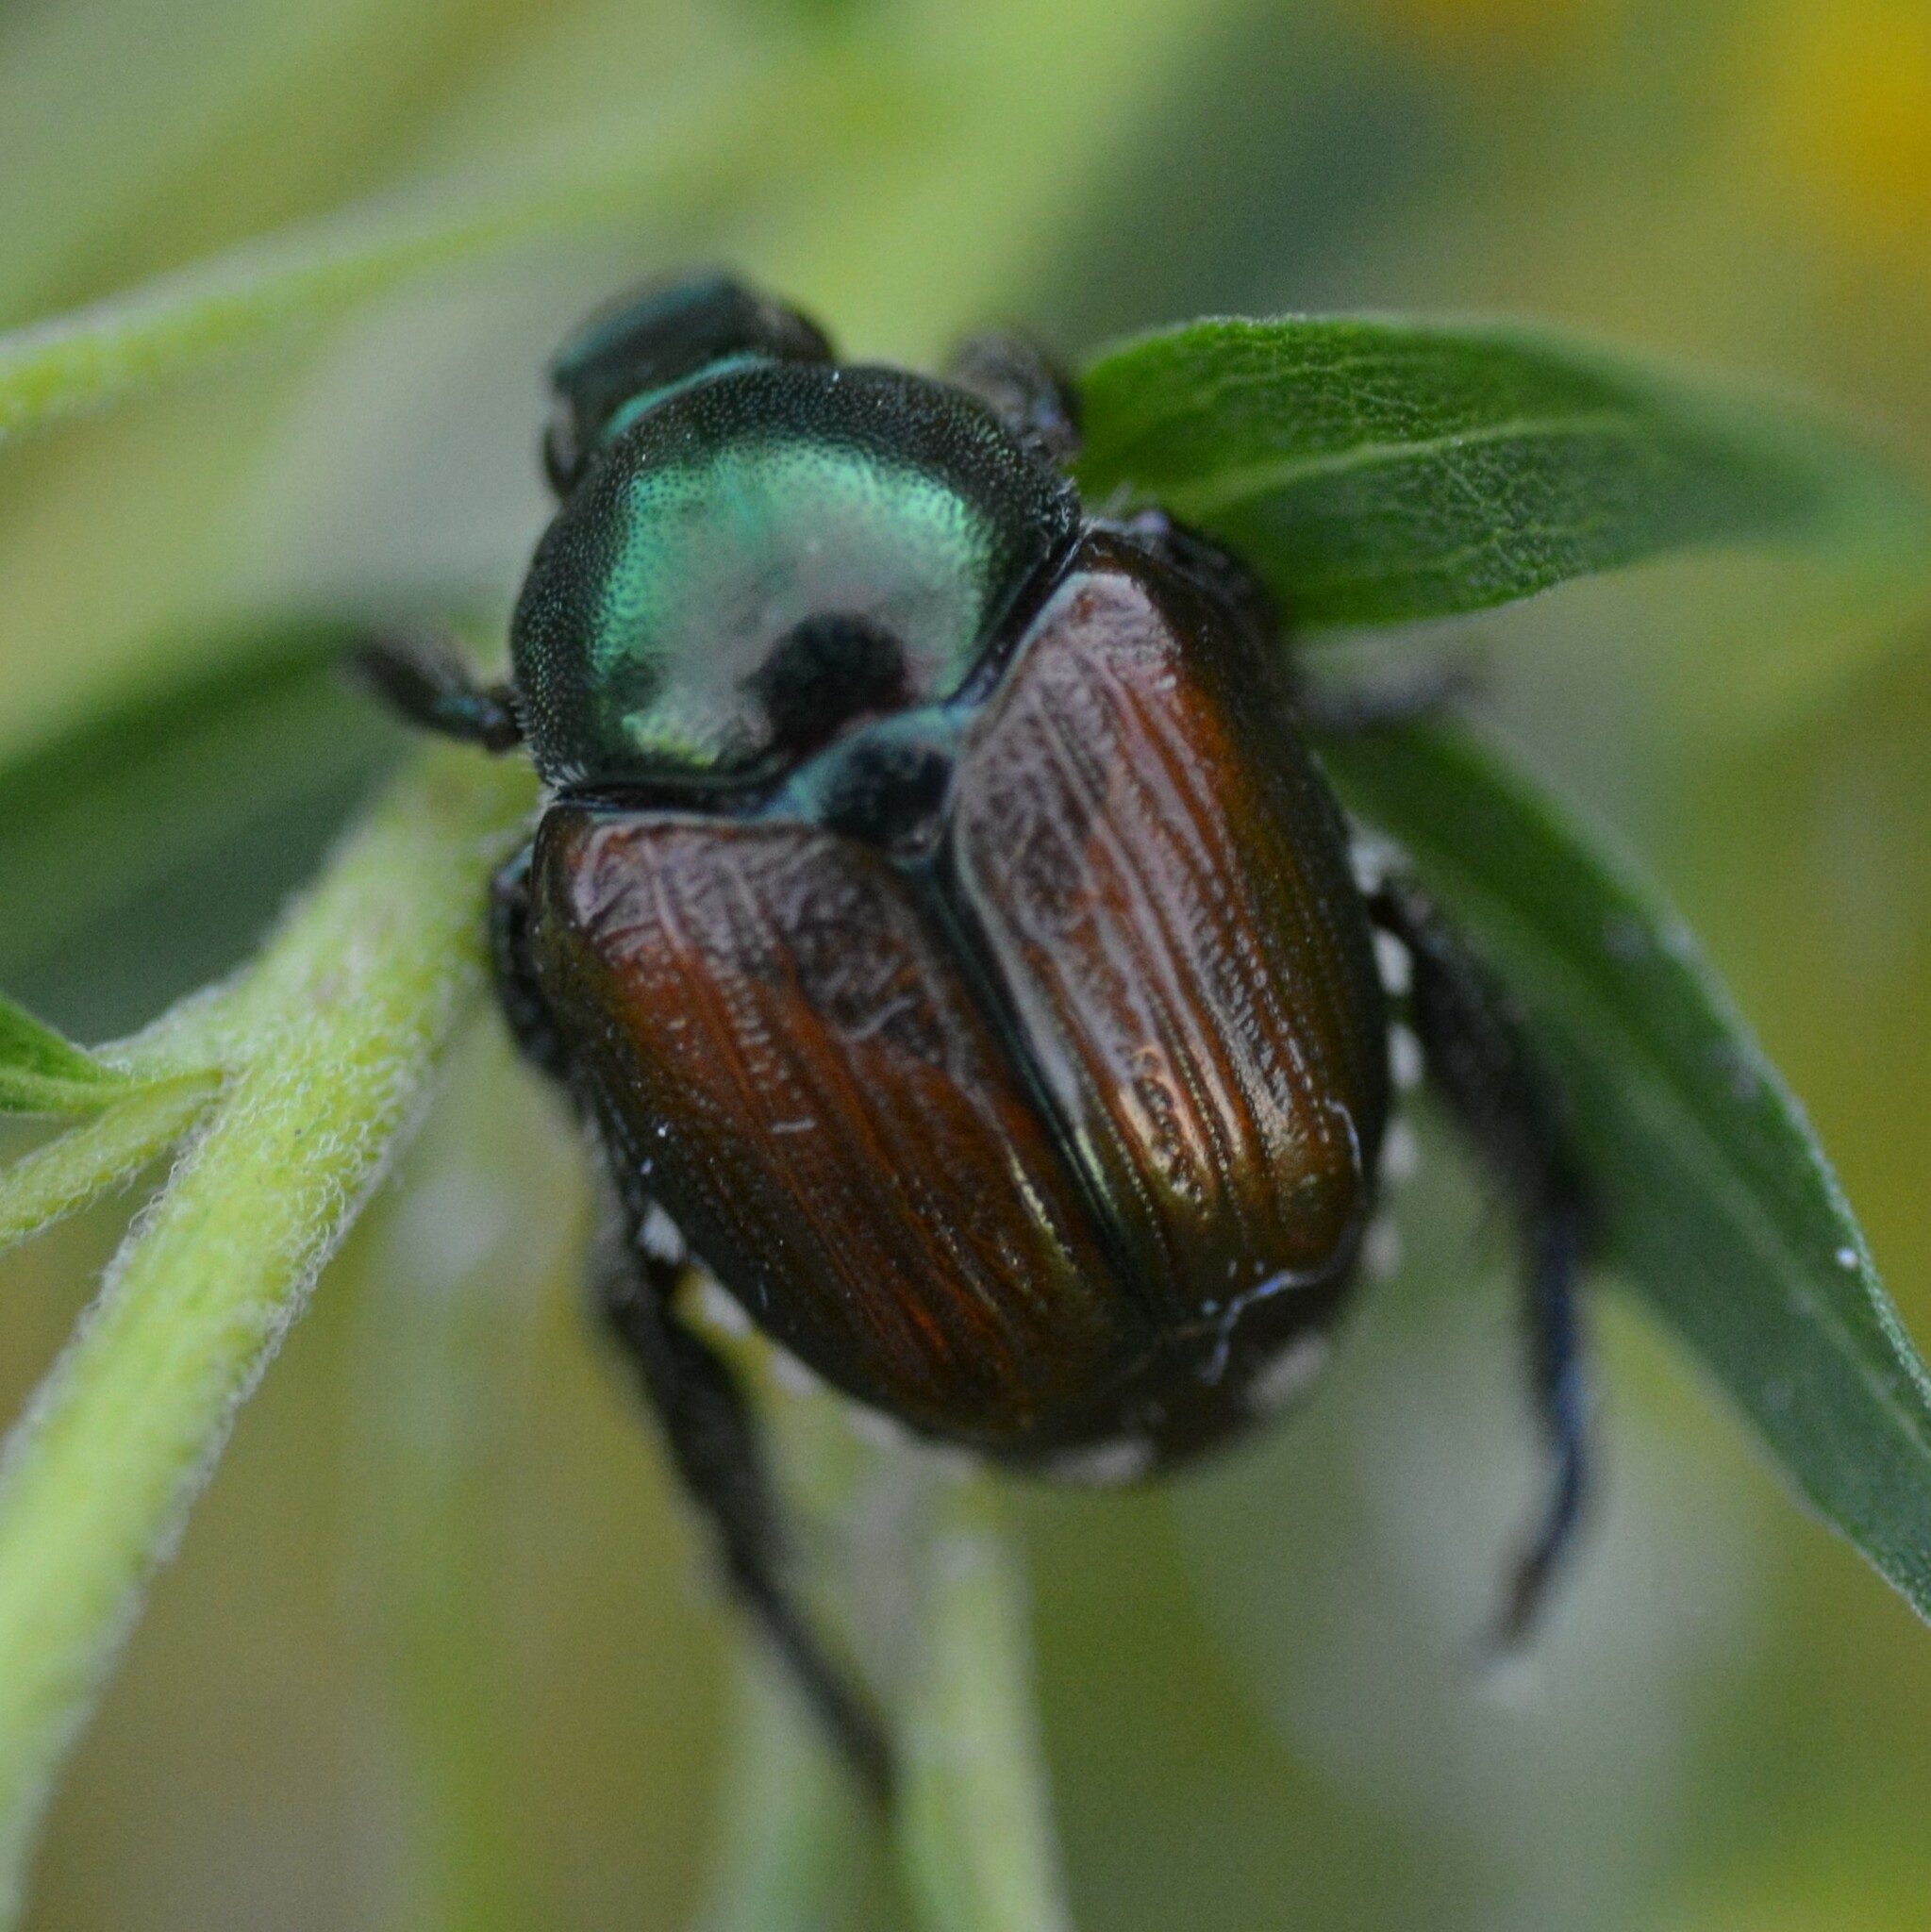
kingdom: Animalia
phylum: Arthropoda
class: Insecta
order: Coleoptera
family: Scarabaeidae
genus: Popillia
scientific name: Popillia japonica
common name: Japanese beetle
